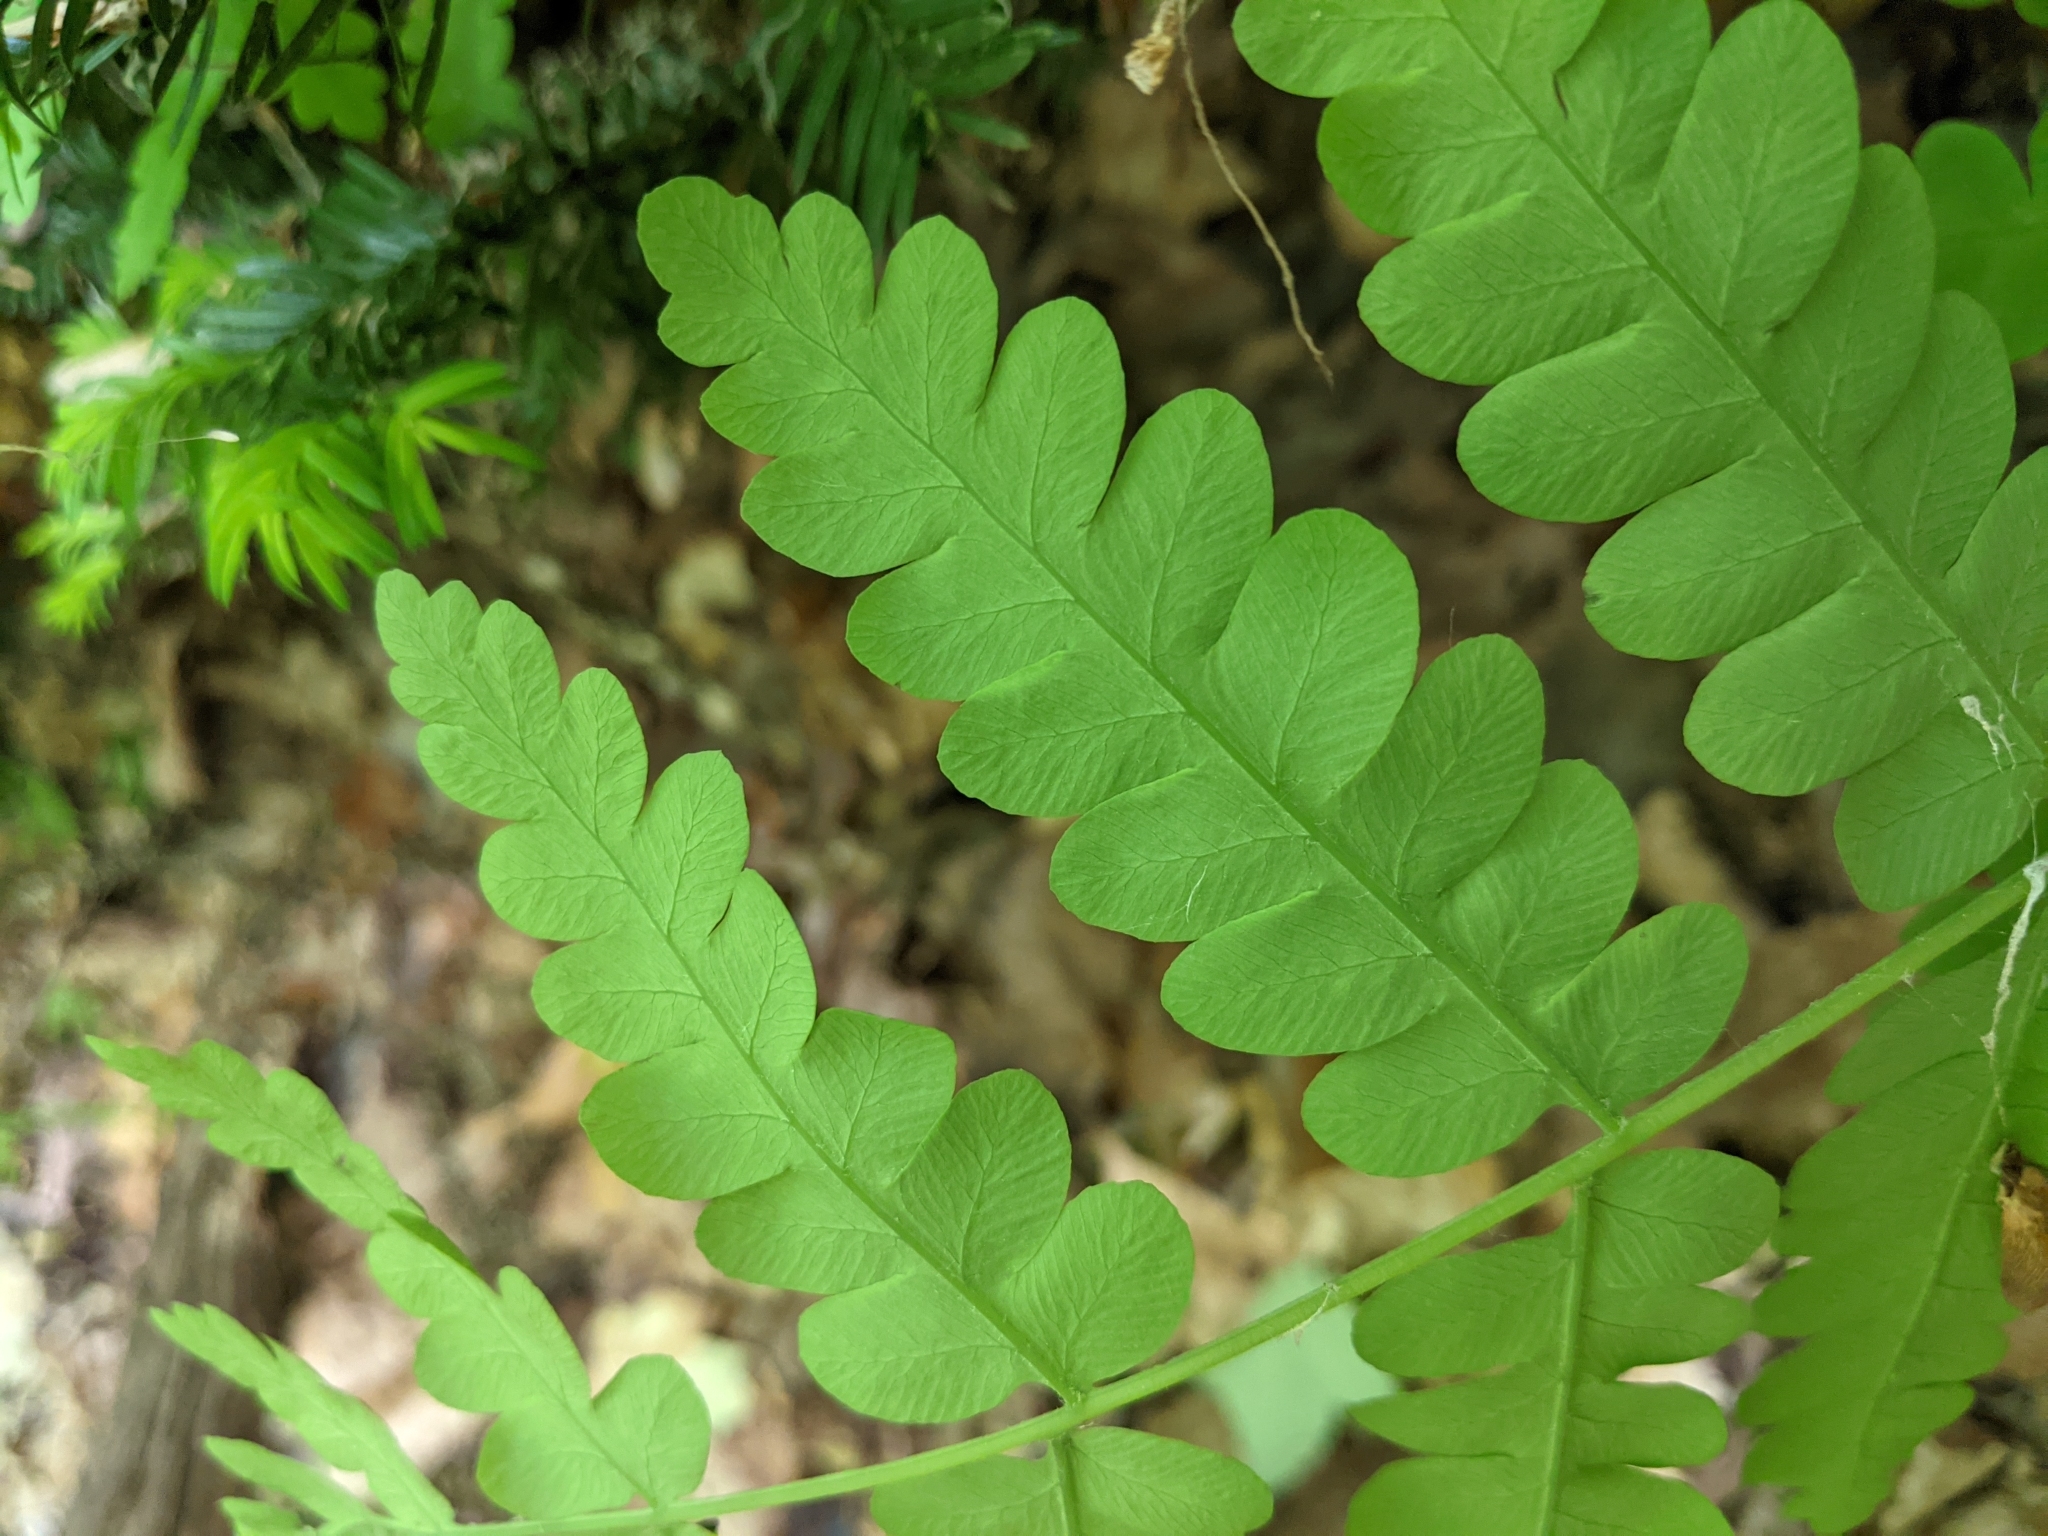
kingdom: Plantae
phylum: Tracheophyta
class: Polypodiopsida
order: Osmundales
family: Osmundaceae
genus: Claytosmunda
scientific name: Claytosmunda claytoniana
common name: Clayton's fern
